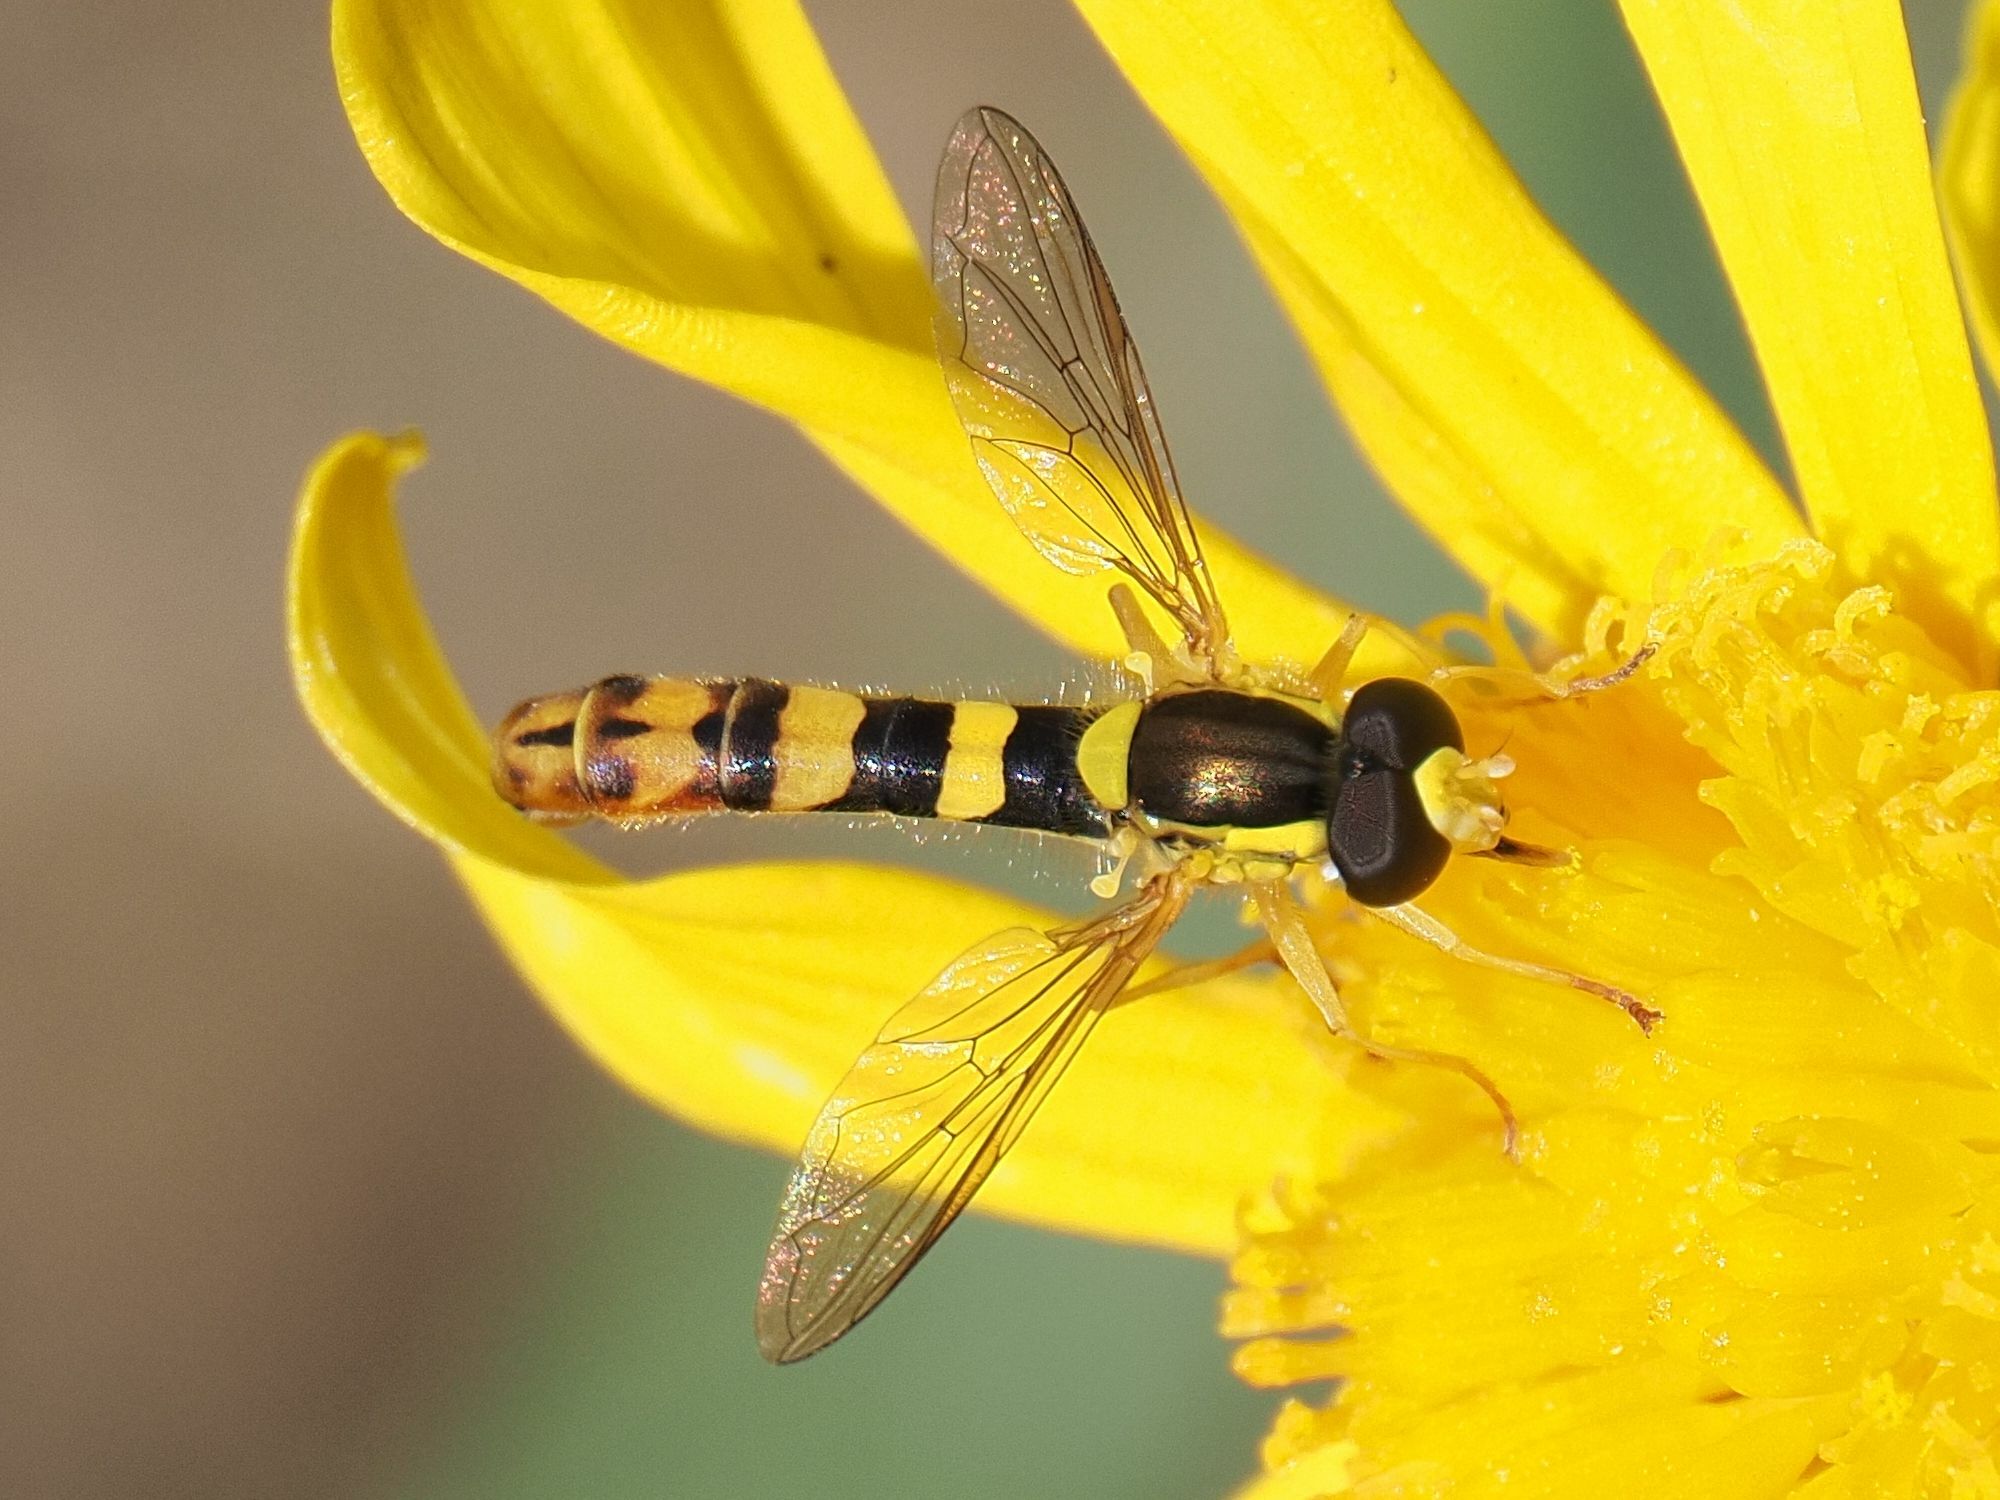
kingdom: Animalia
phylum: Arthropoda
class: Insecta
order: Diptera
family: Syrphidae
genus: Sphaerophoria
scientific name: Sphaerophoria scripta
